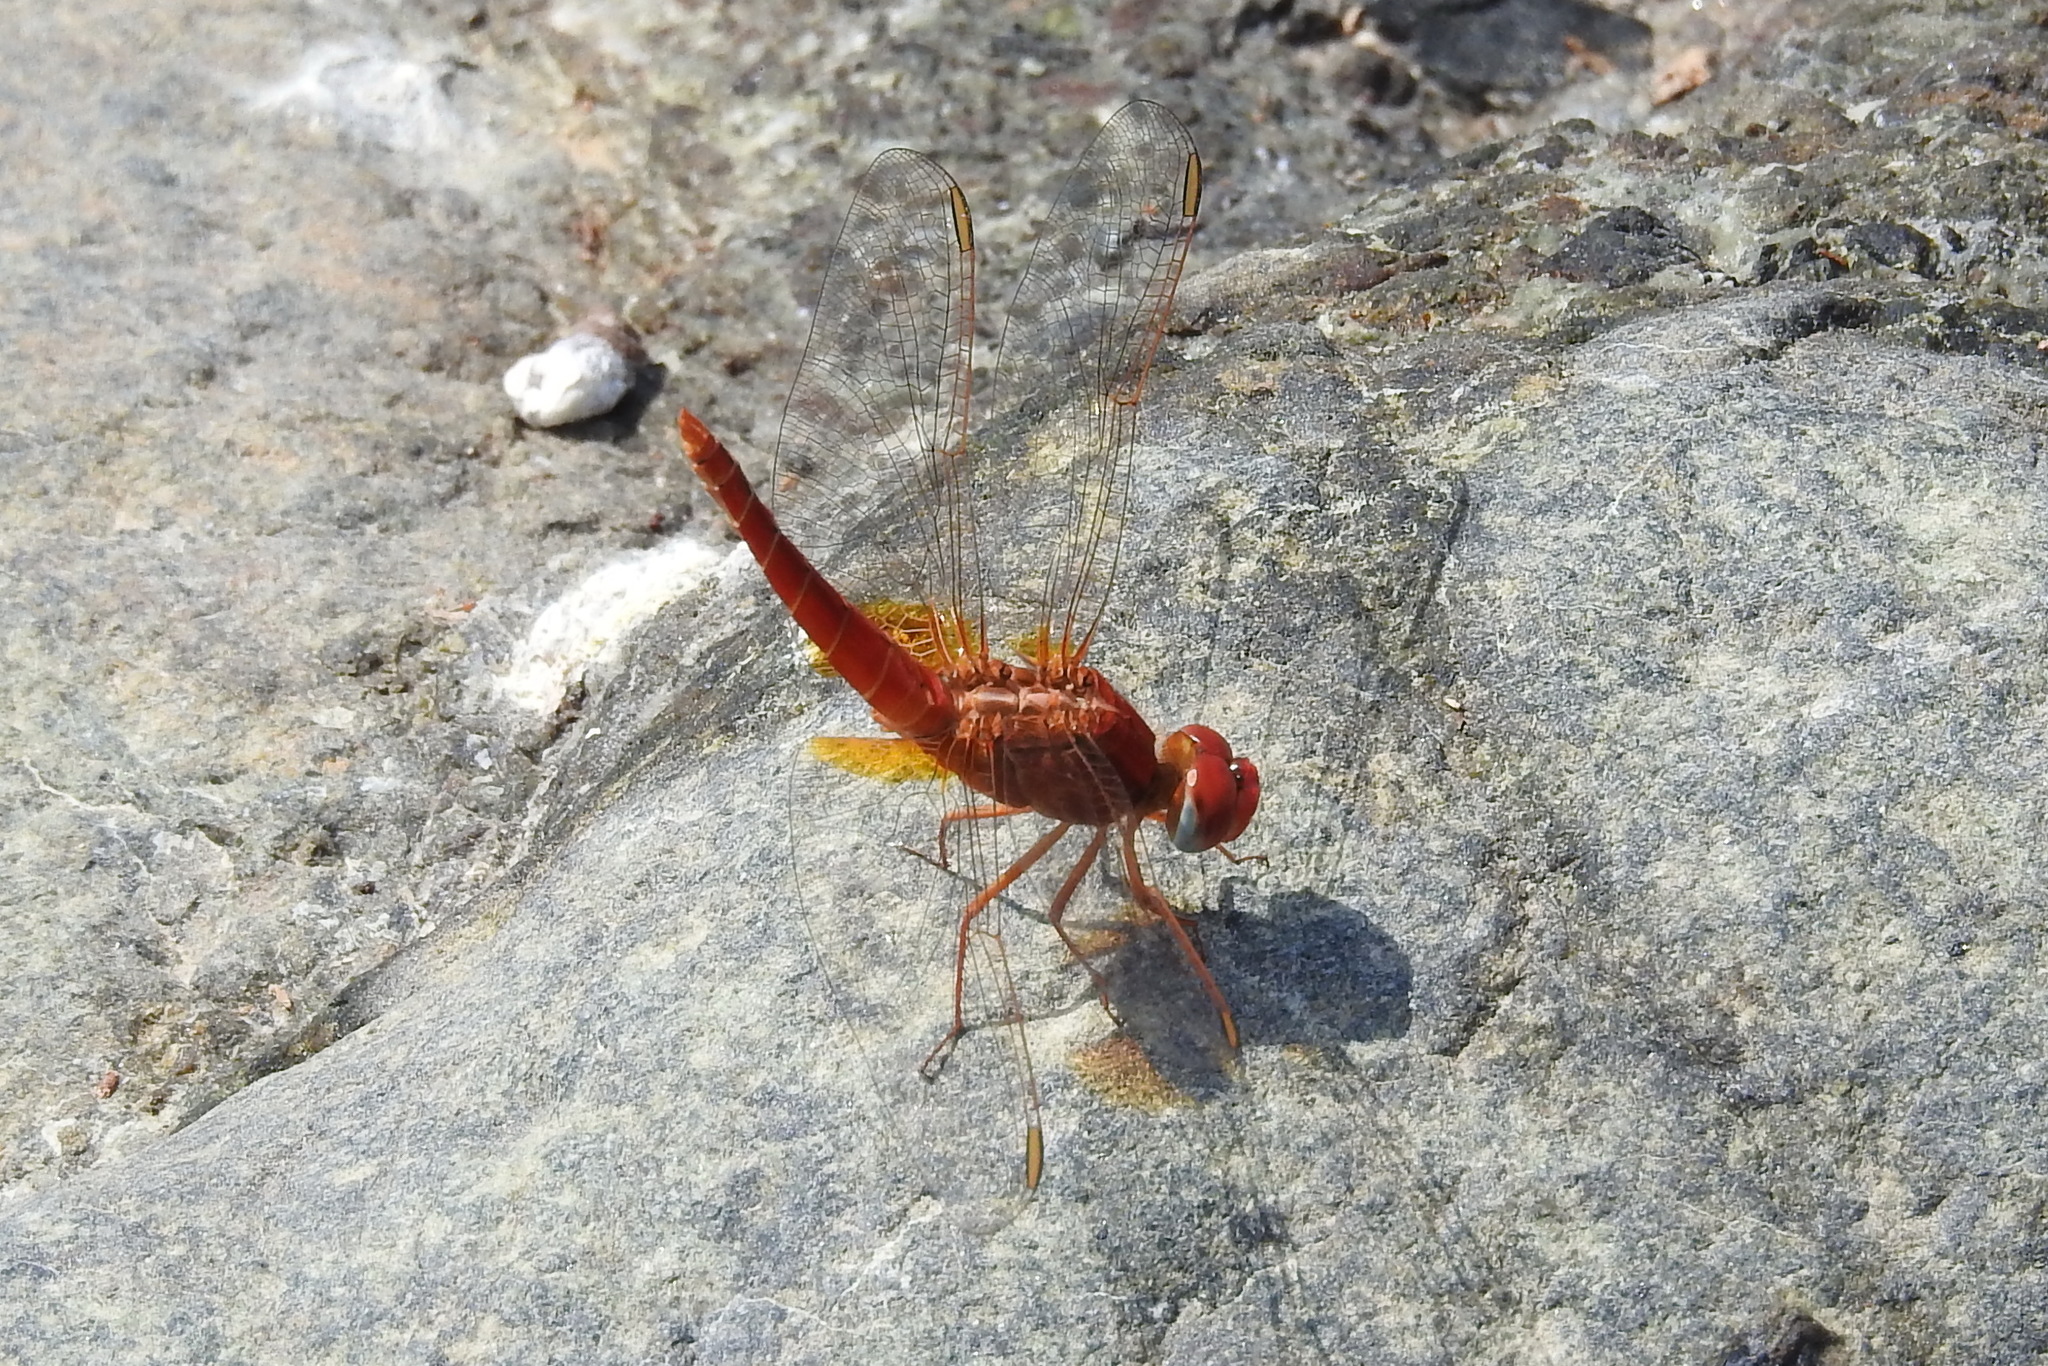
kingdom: Animalia
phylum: Arthropoda
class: Insecta
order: Odonata
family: Libellulidae
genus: Crocothemis
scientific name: Crocothemis erythraea
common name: Scarlet dragonfly
